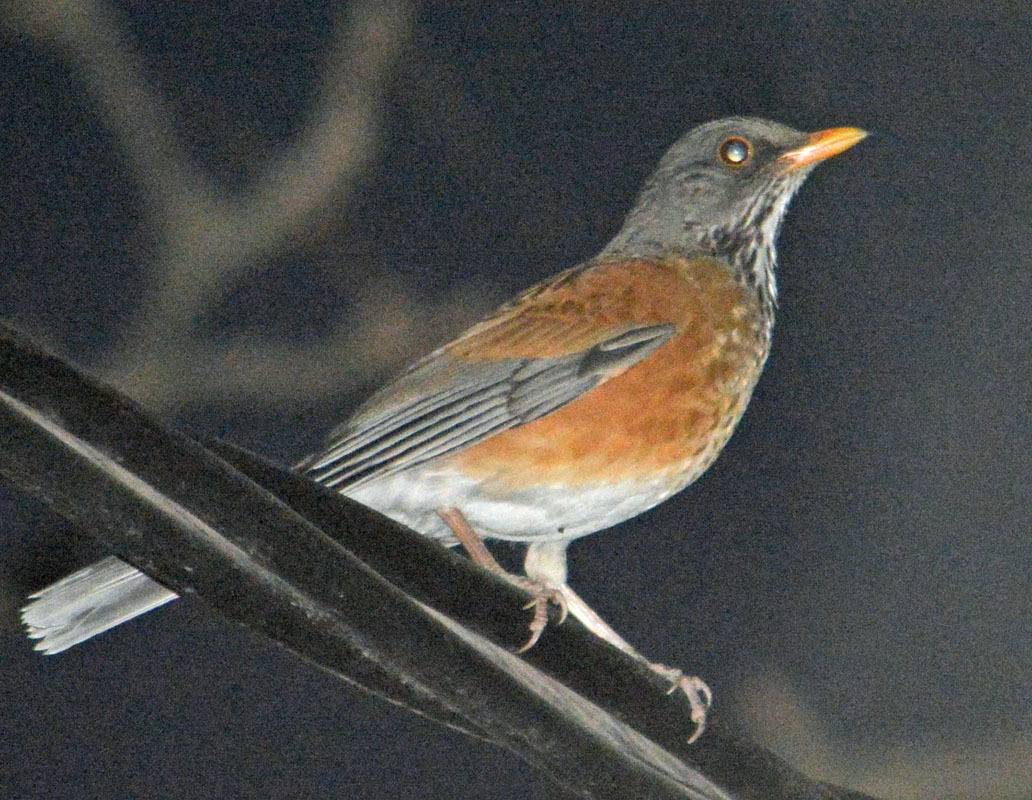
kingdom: Animalia
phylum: Chordata
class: Aves
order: Passeriformes
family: Turdidae
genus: Turdus
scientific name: Turdus rufopalliatus
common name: Rufous-backed robin
